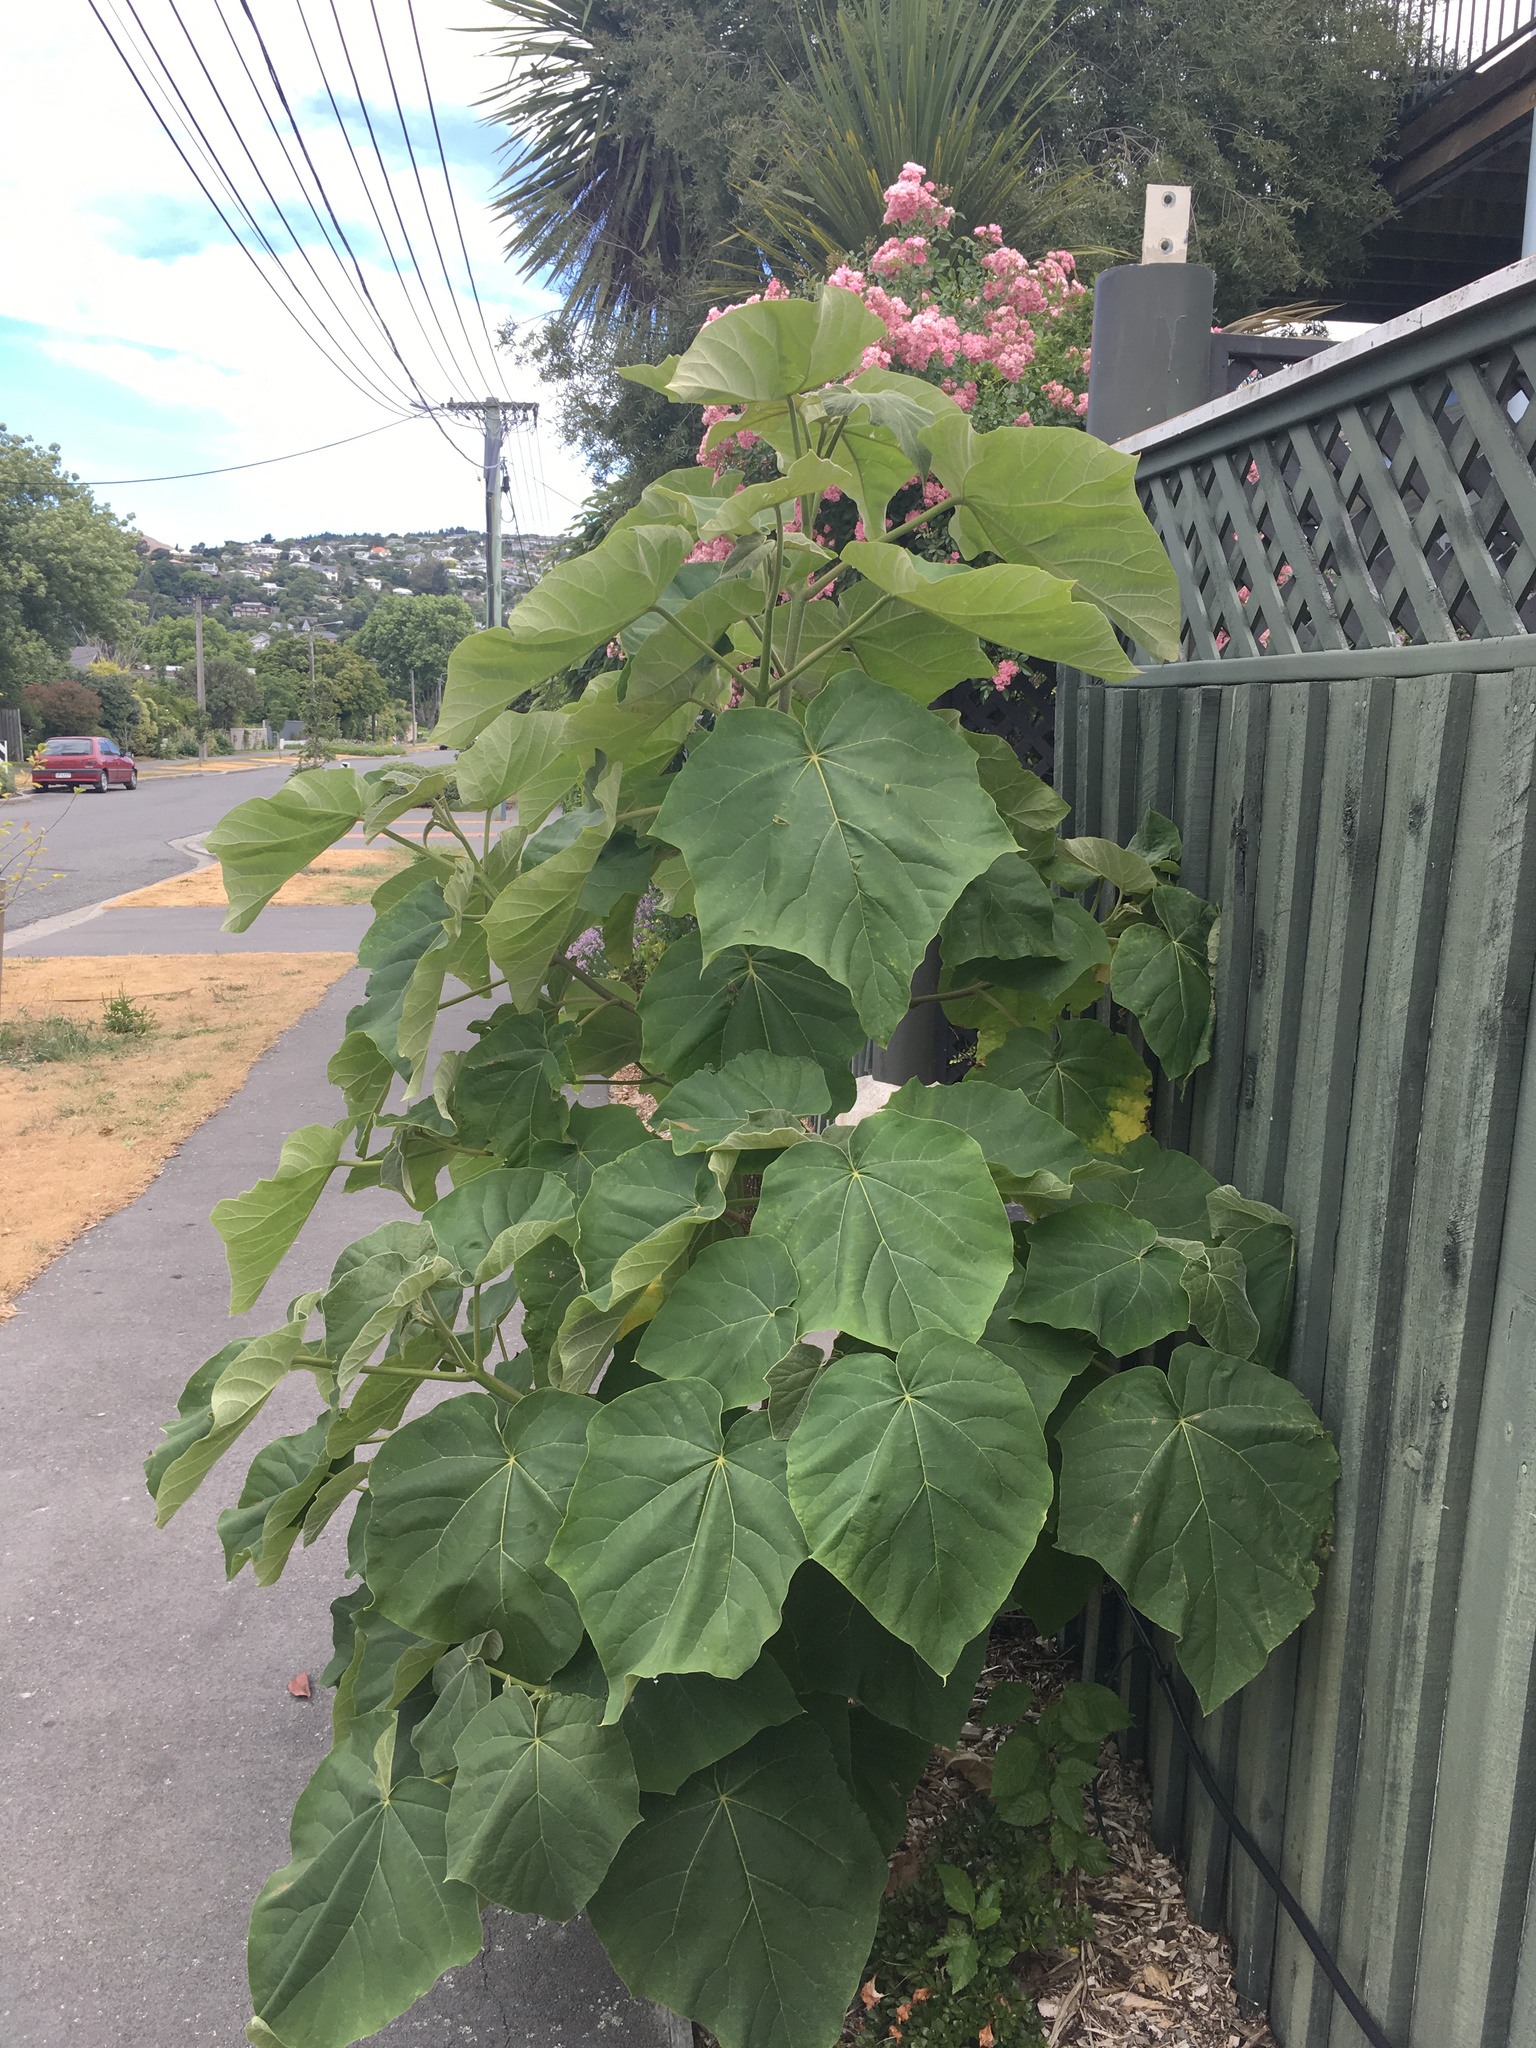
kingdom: Plantae
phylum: Tracheophyta
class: Magnoliopsida
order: Lamiales
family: Paulowniaceae
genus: Paulownia
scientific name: Paulownia tomentosa
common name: Foxglove-tree
